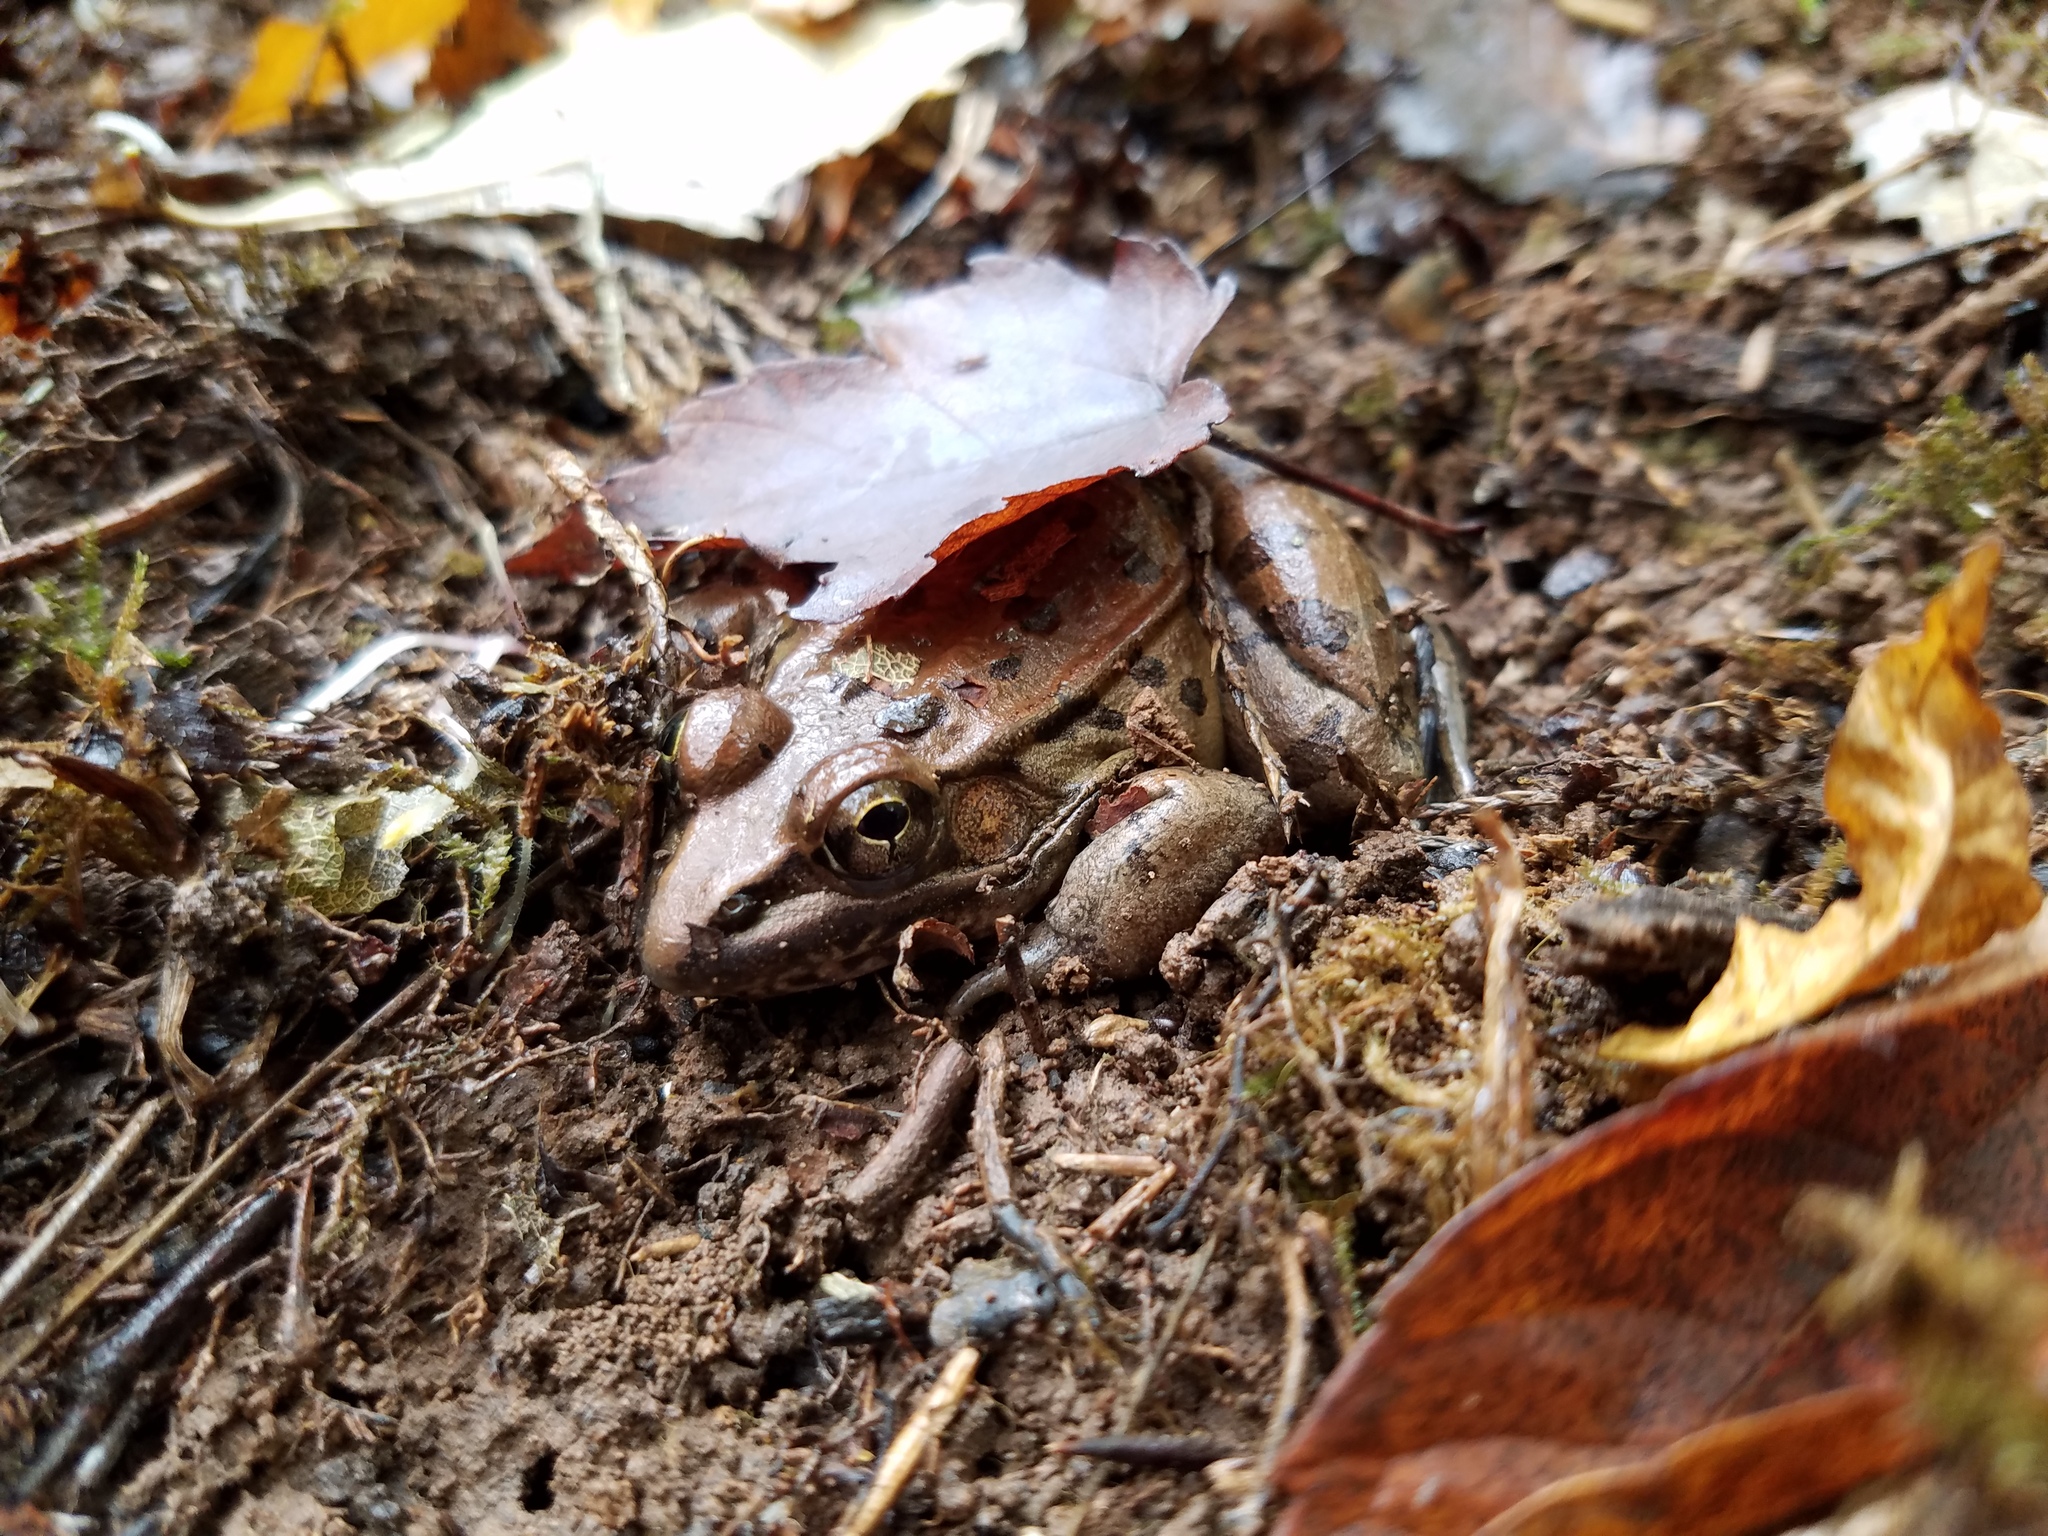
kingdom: Animalia
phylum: Chordata
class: Amphibia
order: Anura
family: Ranidae
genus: Lithobates
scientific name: Lithobates sphenocephalus
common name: Southern leopard frog
